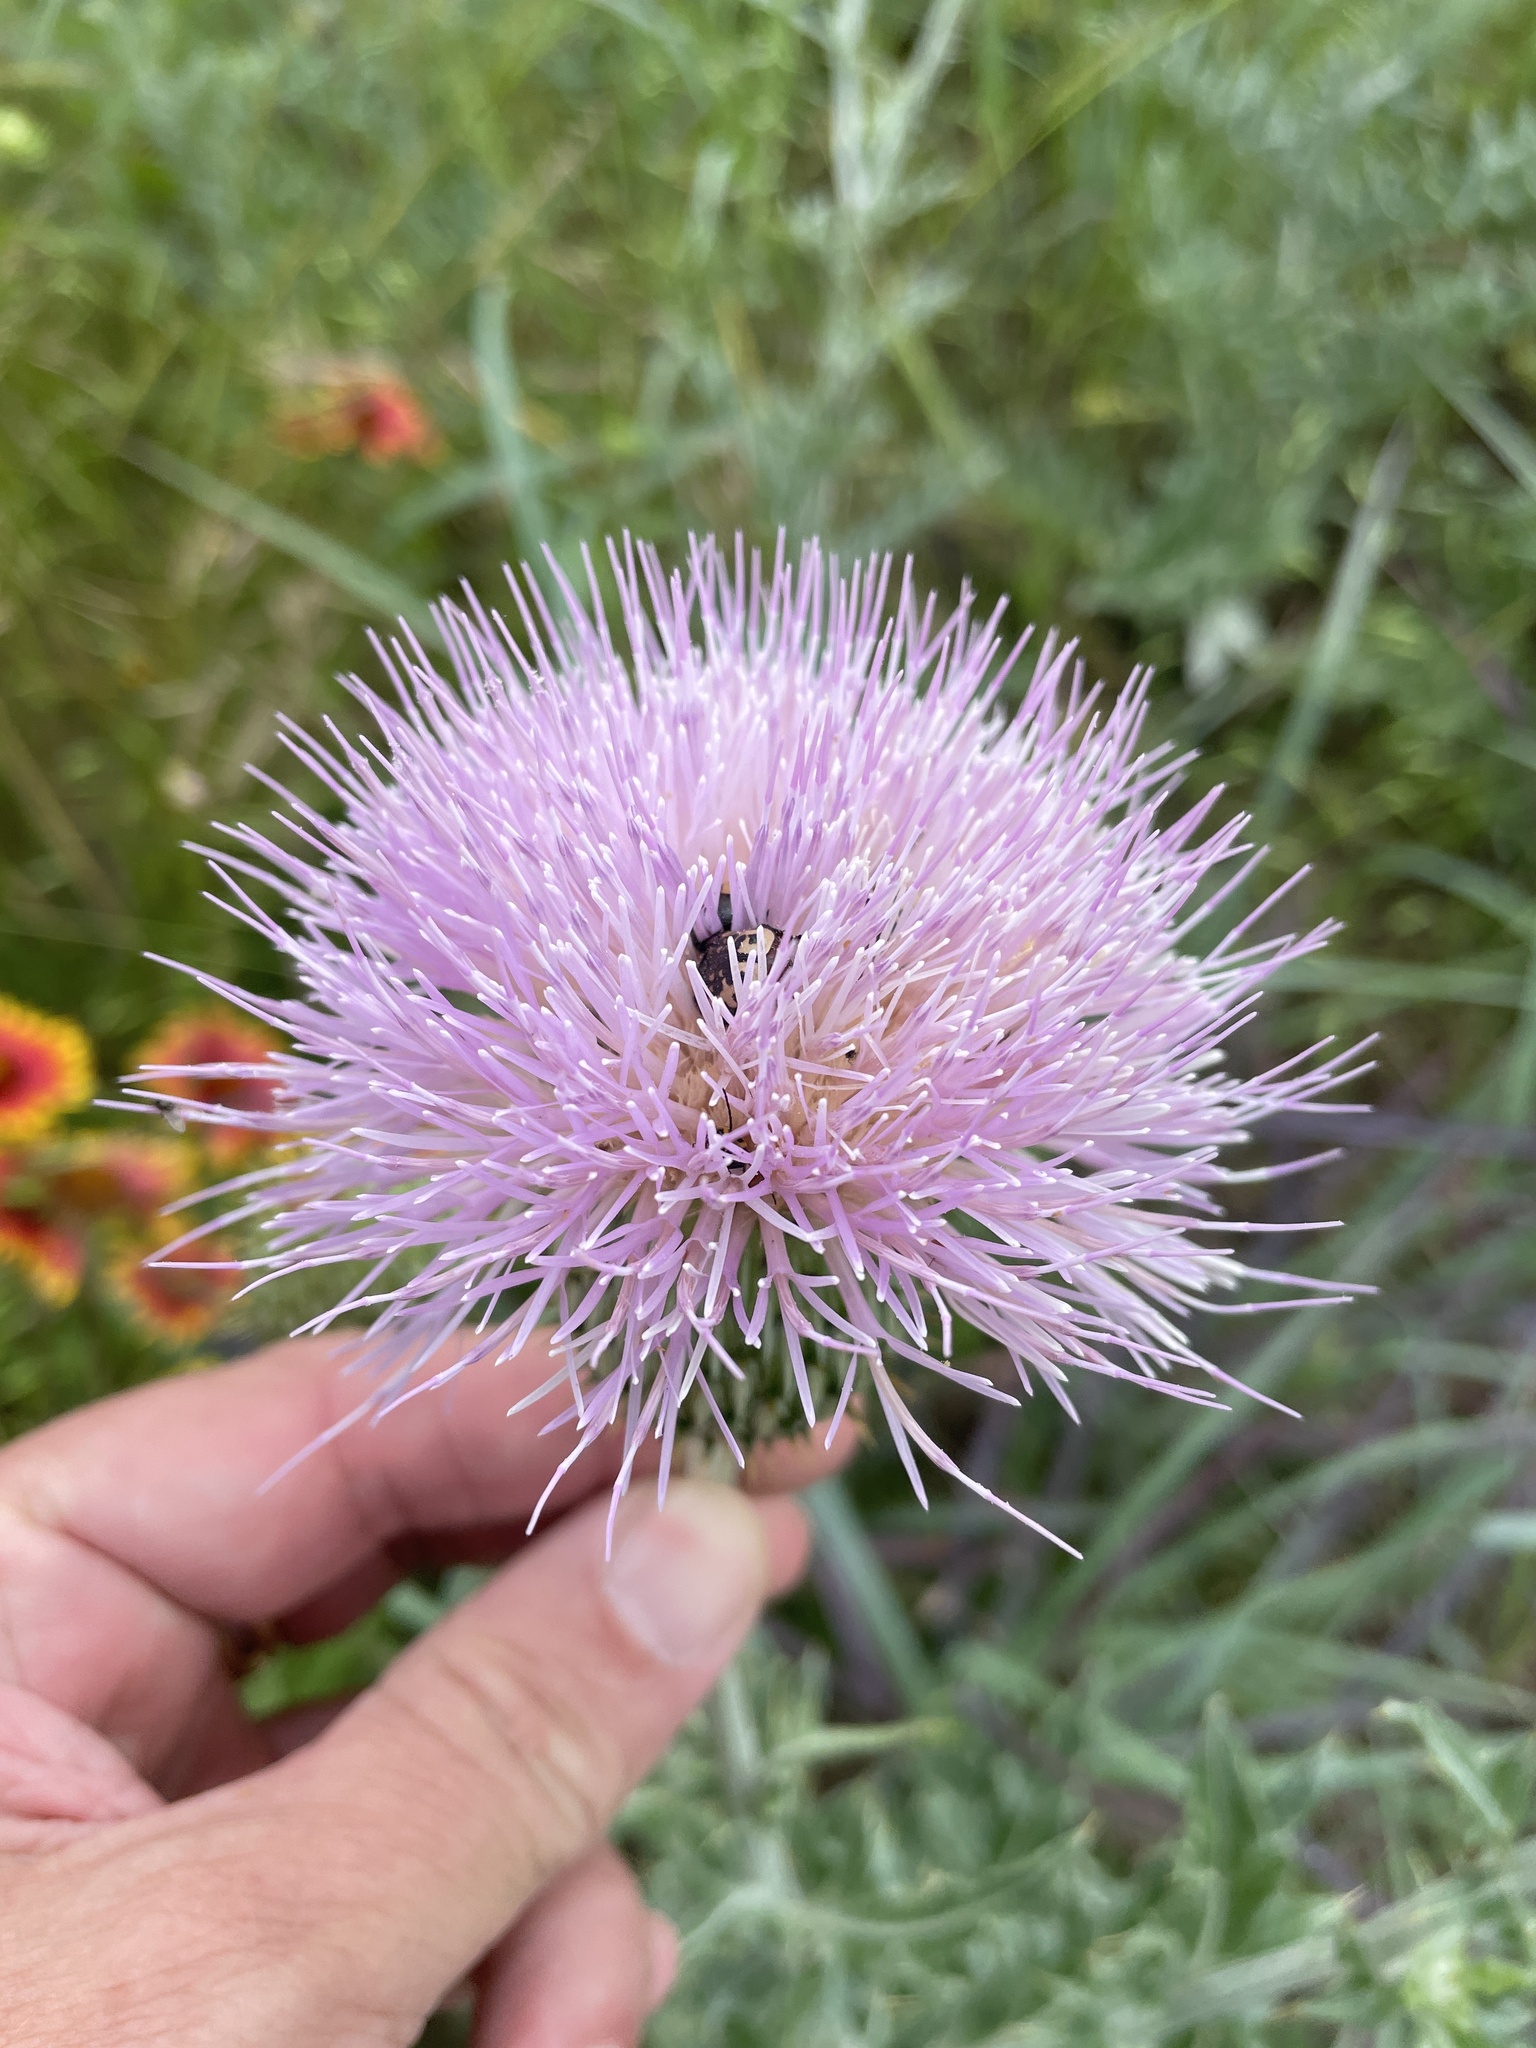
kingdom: Plantae
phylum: Tracheophyta
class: Magnoliopsida
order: Asterales
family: Asteraceae
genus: Cirsium
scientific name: Cirsium undulatum
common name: Pasture thistle
